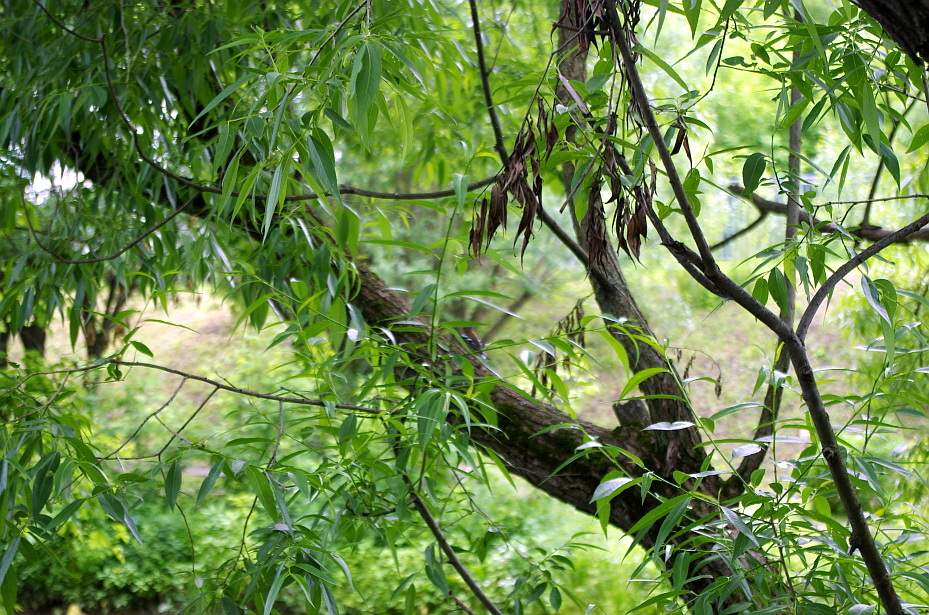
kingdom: Plantae
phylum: Tracheophyta
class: Magnoliopsida
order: Malpighiales
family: Salicaceae
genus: Salix
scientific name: Salix alba
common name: White willow
